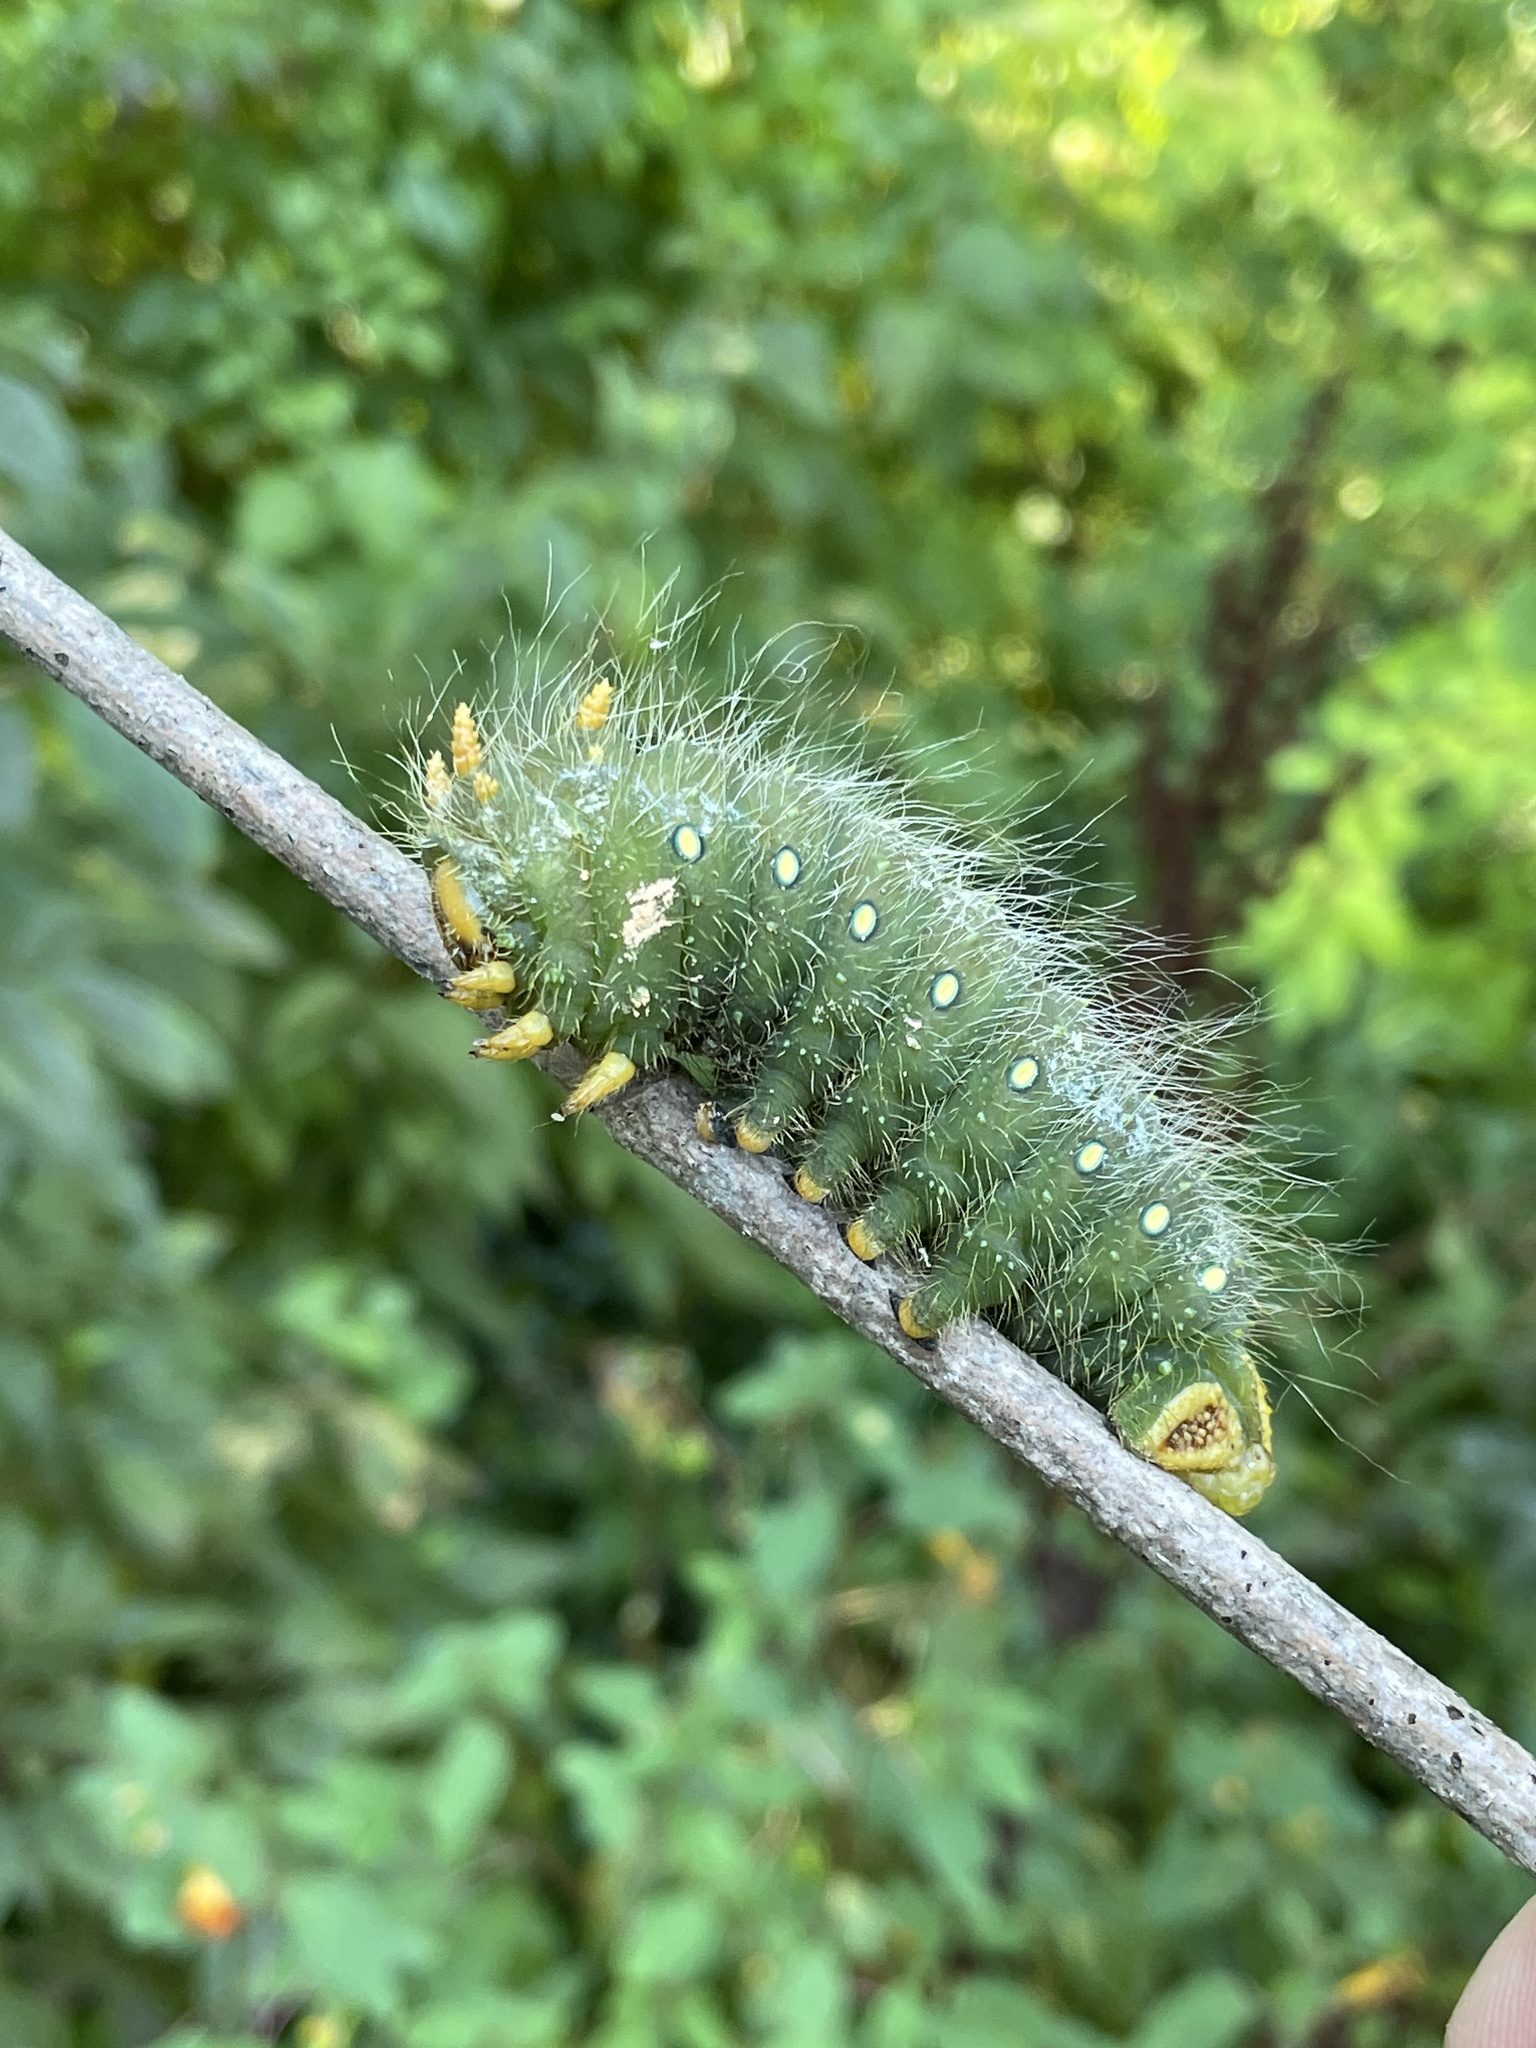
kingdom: Animalia
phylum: Arthropoda
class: Insecta
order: Lepidoptera
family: Saturniidae
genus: Eacles
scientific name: Eacles imperialis
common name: Imperial moth
